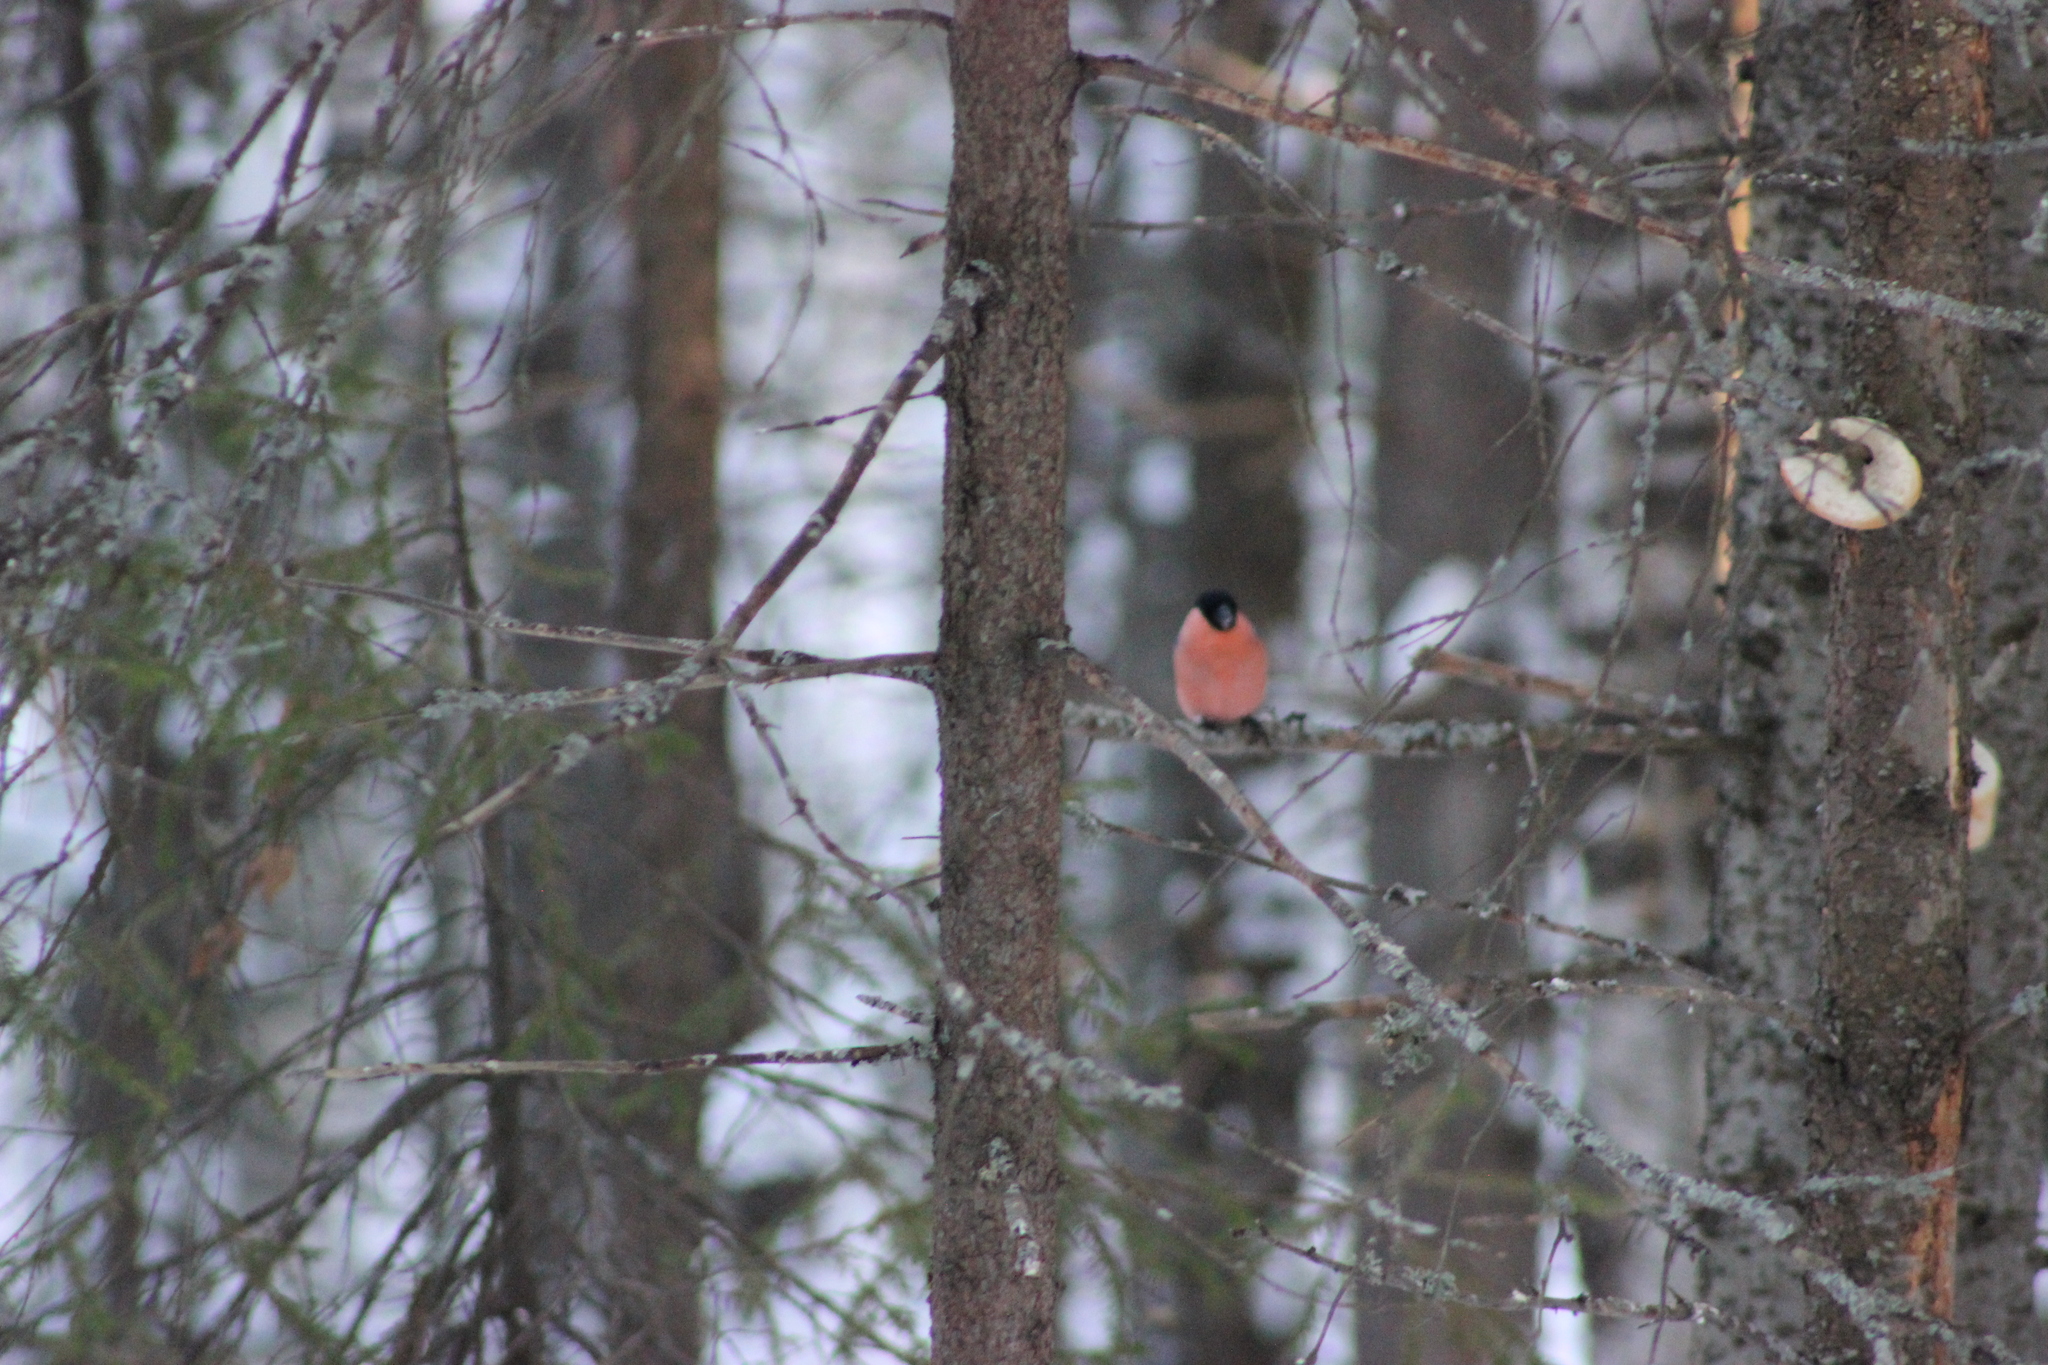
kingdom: Animalia
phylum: Chordata
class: Aves
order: Passeriformes
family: Fringillidae
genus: Pyrrhula
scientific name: Pyrrhula pyrrhula
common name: Eurasian bullfinch
